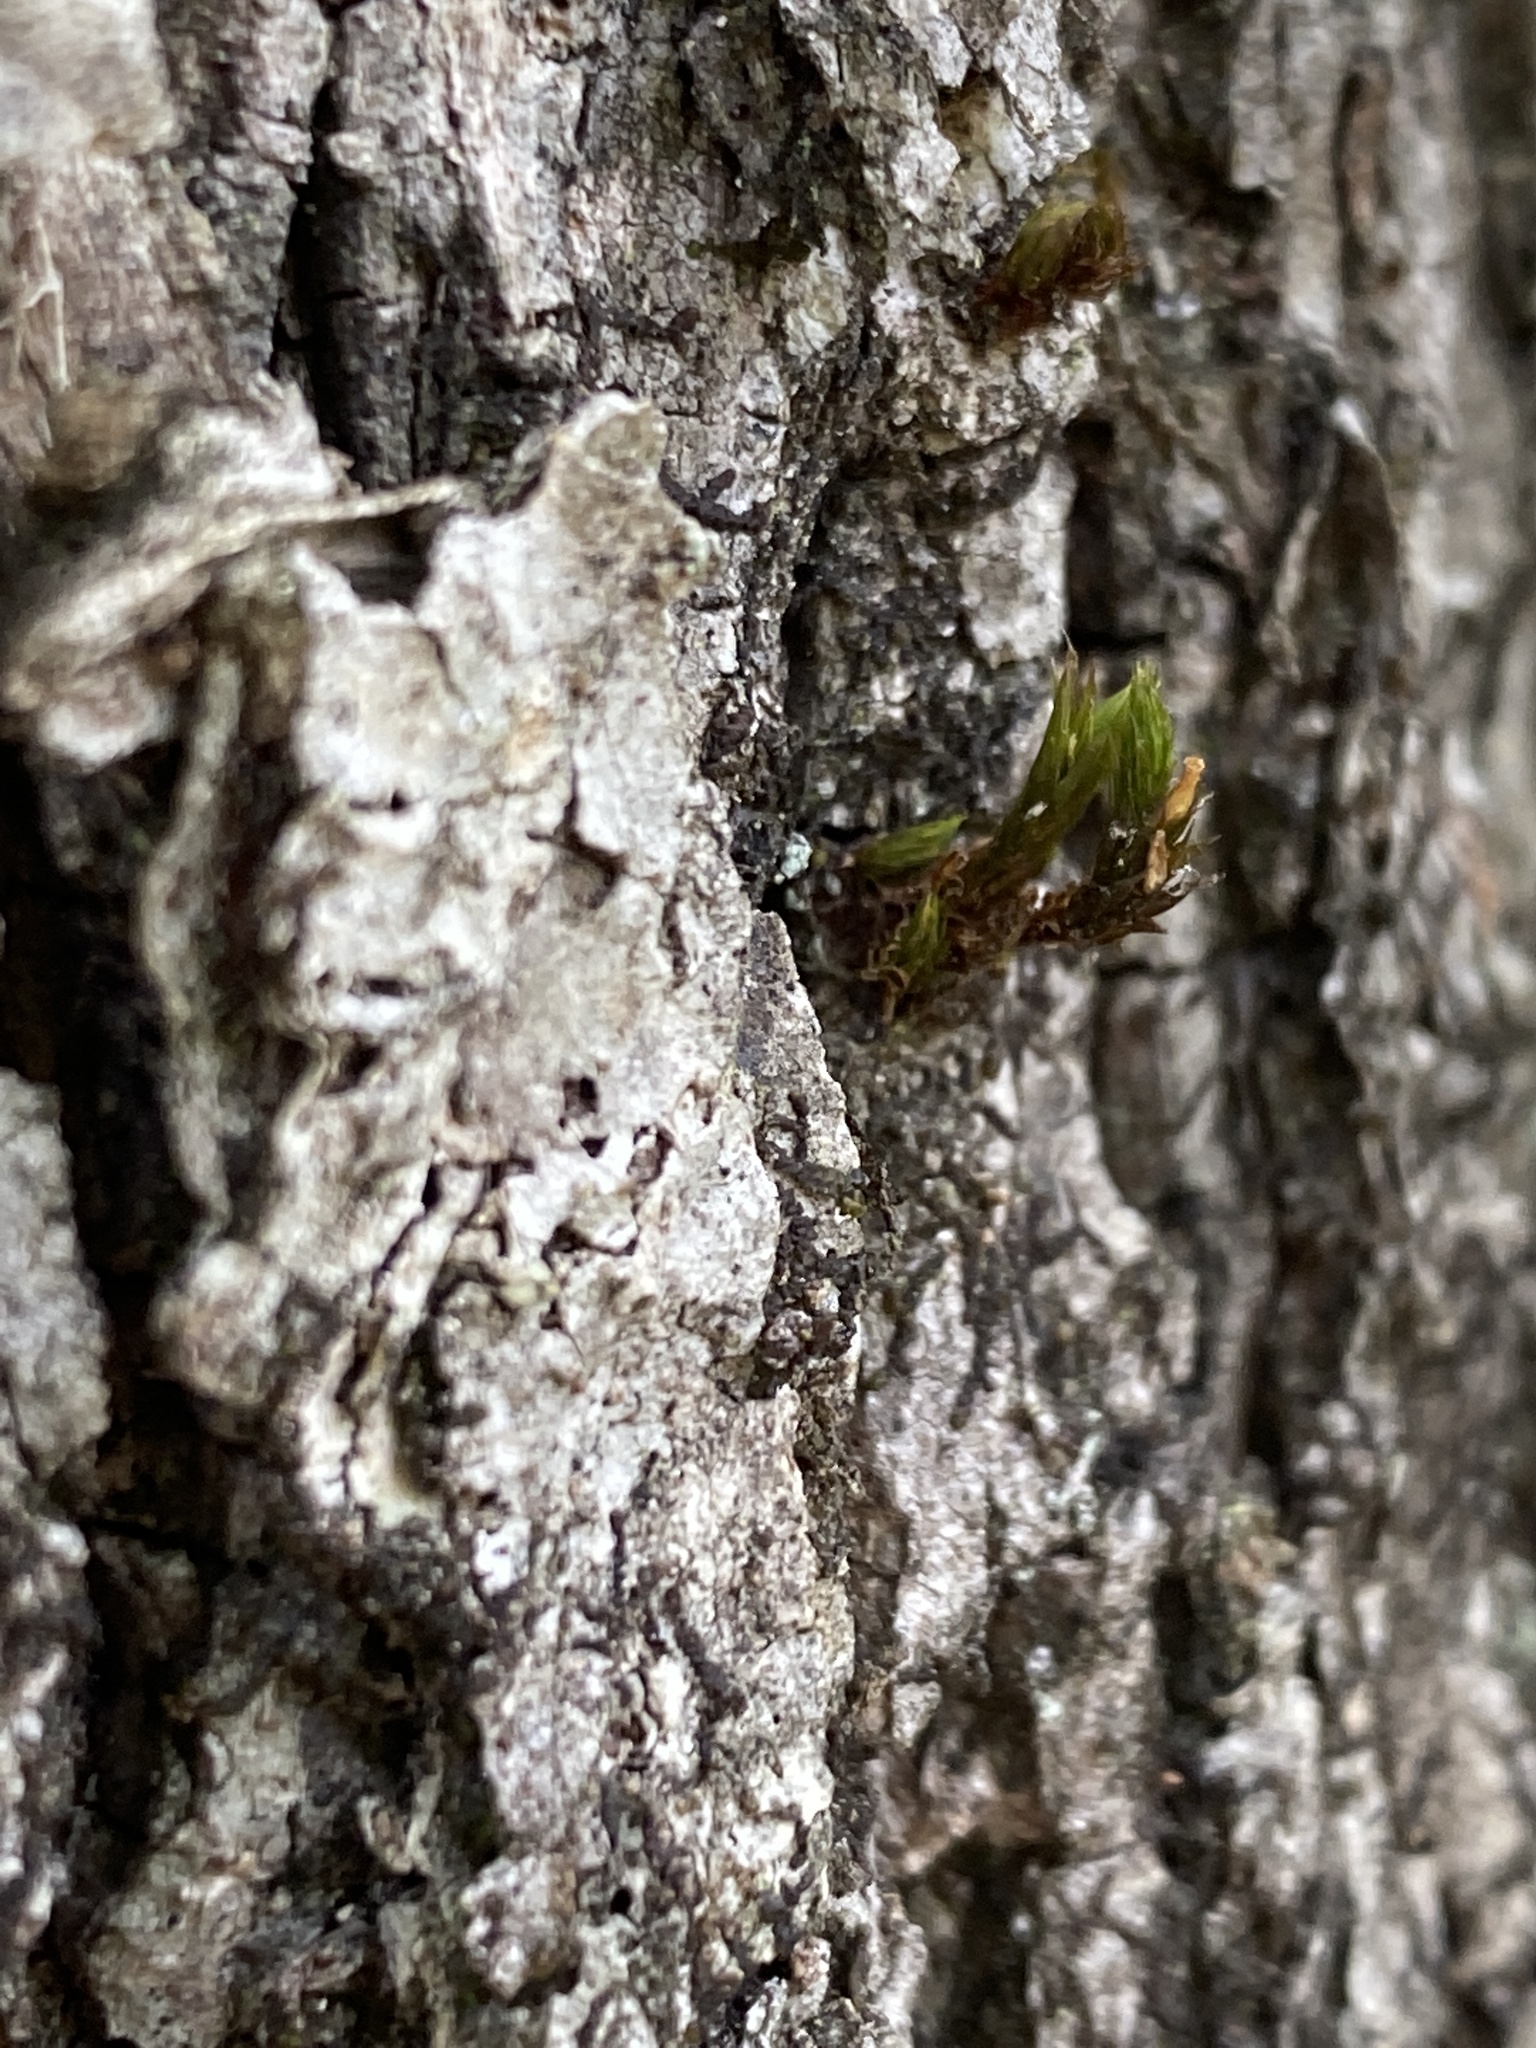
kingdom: Plantae
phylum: Bryophyta
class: Bryopsida
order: Orthotrichales
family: Orthotrichaceae
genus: Lewinskya
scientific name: Lewinskya keeverae
